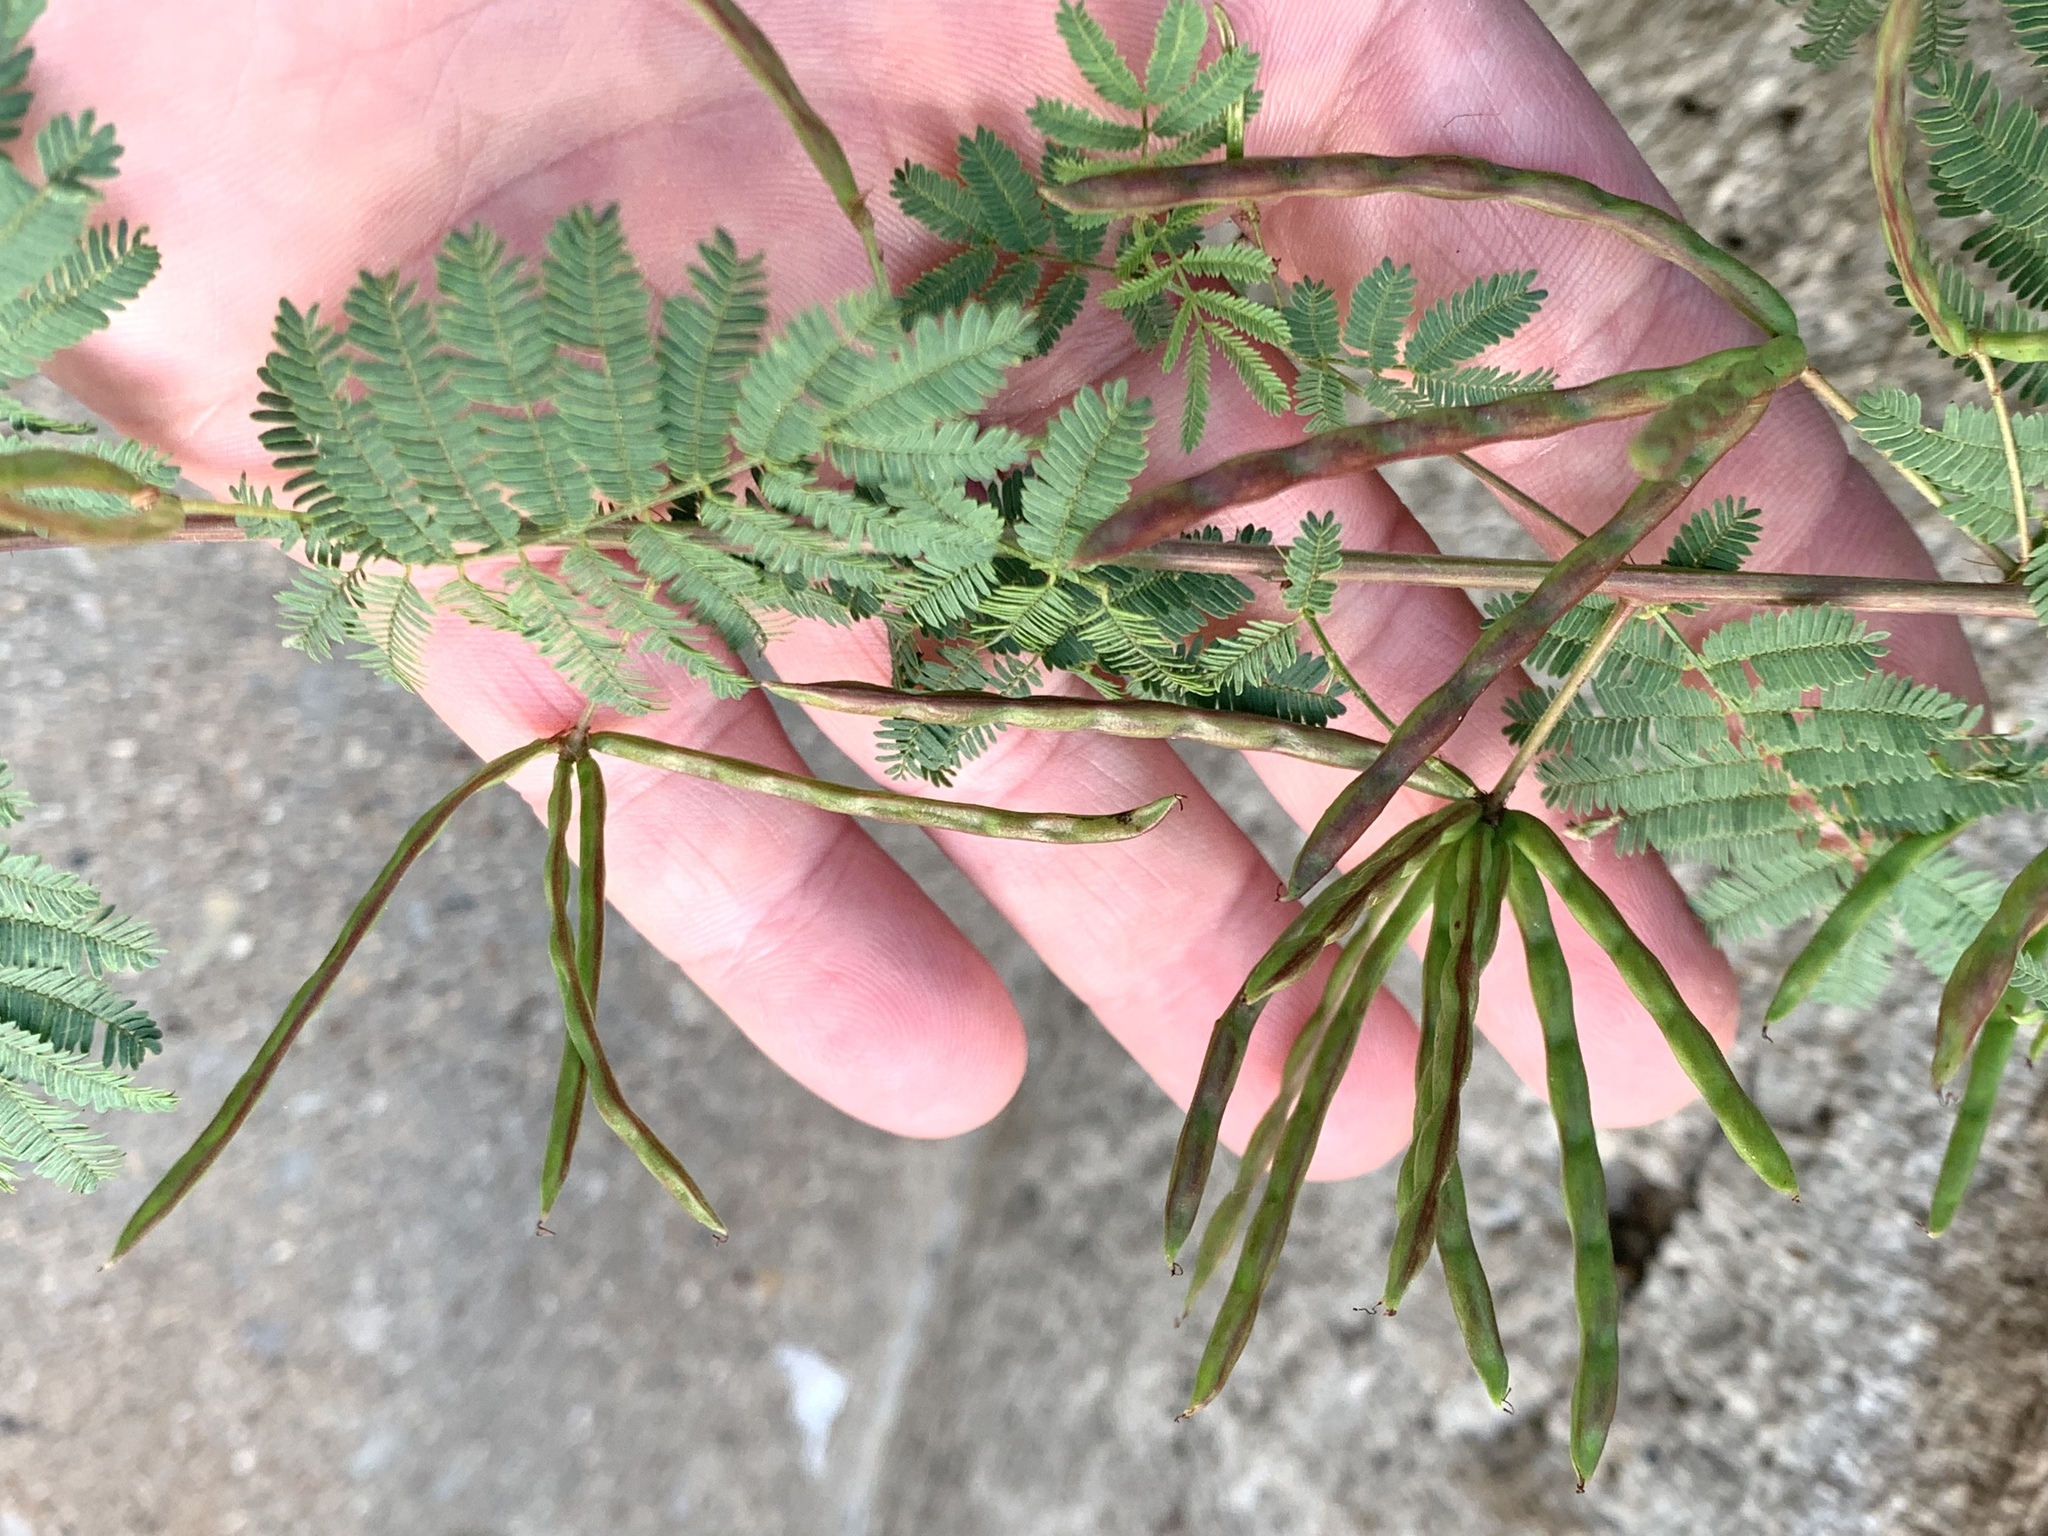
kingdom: Plantae
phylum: Tracheophyta
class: Magnoliopsida
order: Fabales
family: Fabaceae
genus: Desmanthus
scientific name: Desmanthus leptolobus
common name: Prairie-mimosa
